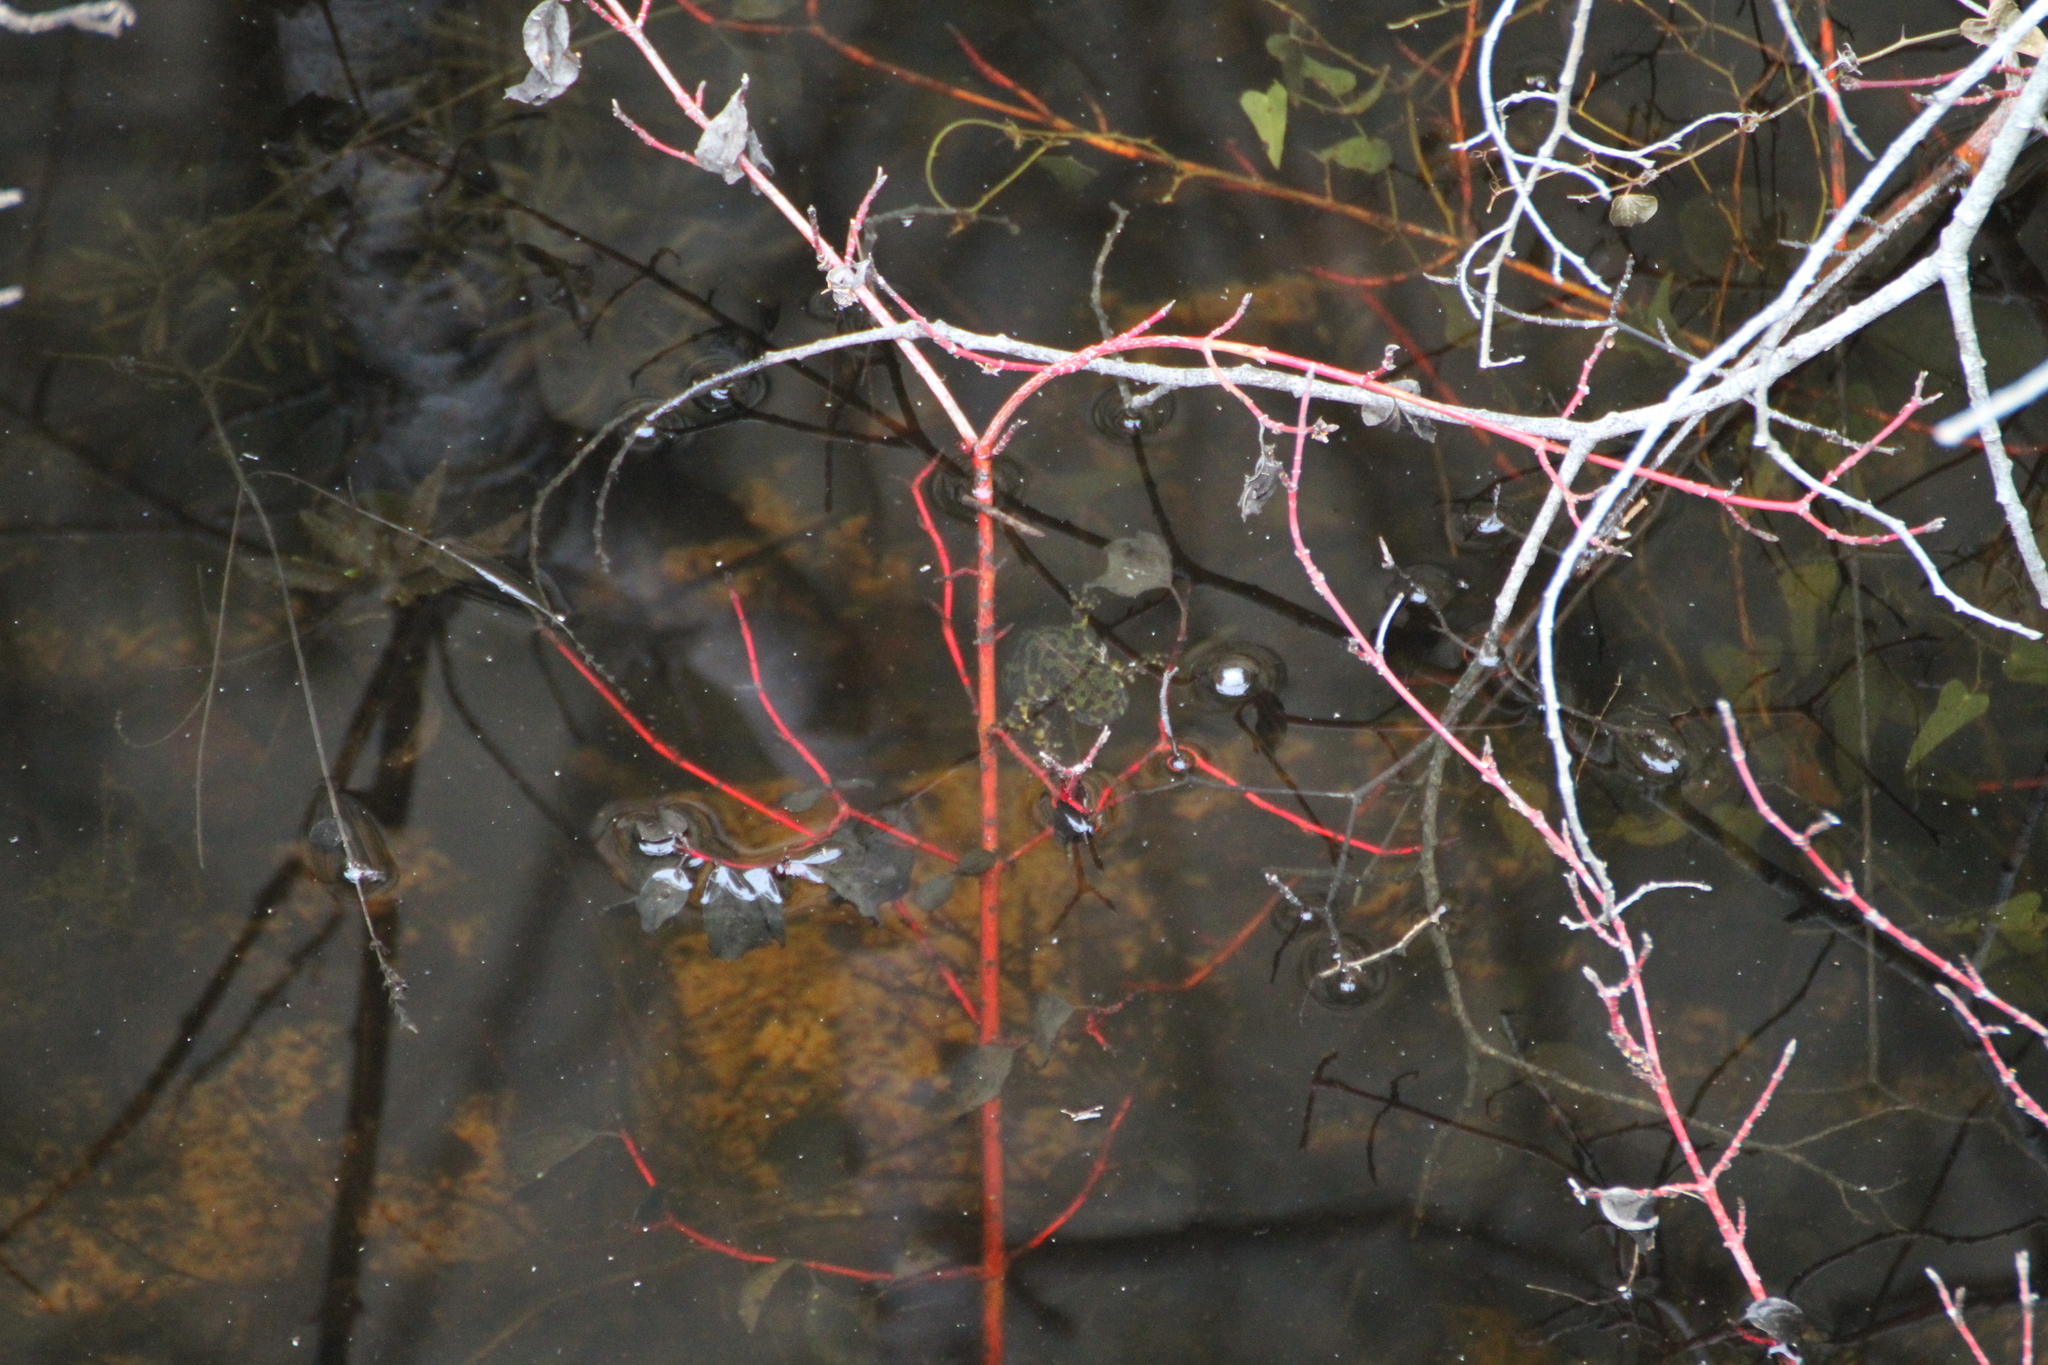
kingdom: Animalia
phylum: Chordata
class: Amphibia
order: Caudata
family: Salamandridae
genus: Triturus
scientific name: Triturus marmoratus
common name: Marbled newt
